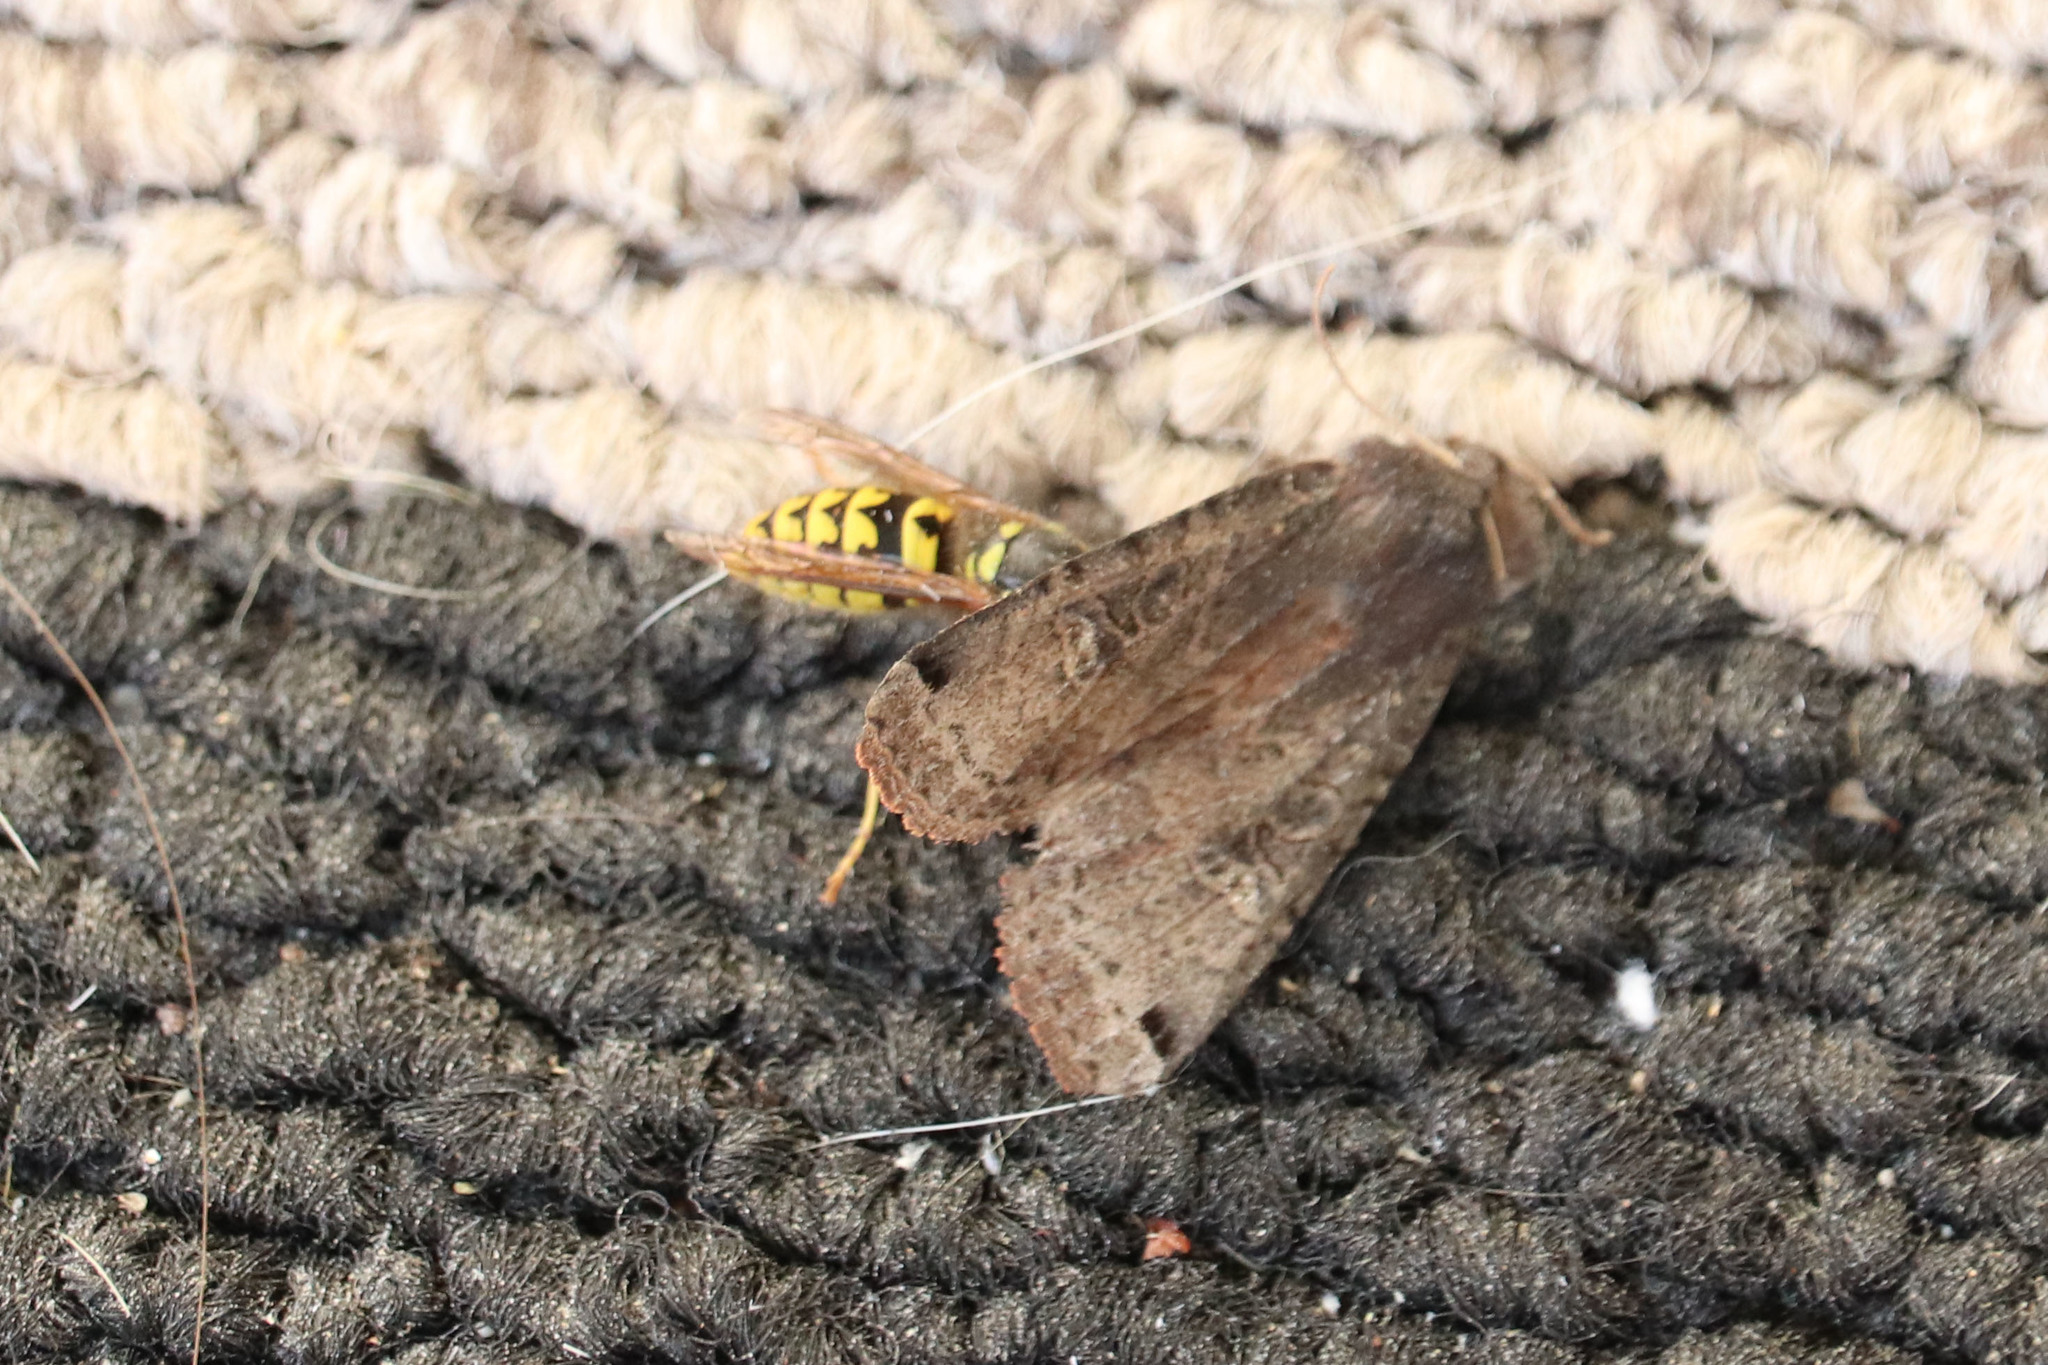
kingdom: Animalia
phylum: Arthropoda
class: Insecta
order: Lepidoptera
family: Noctuidae
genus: Noctua
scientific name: Noctua pronuba
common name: Large yellow underwing
